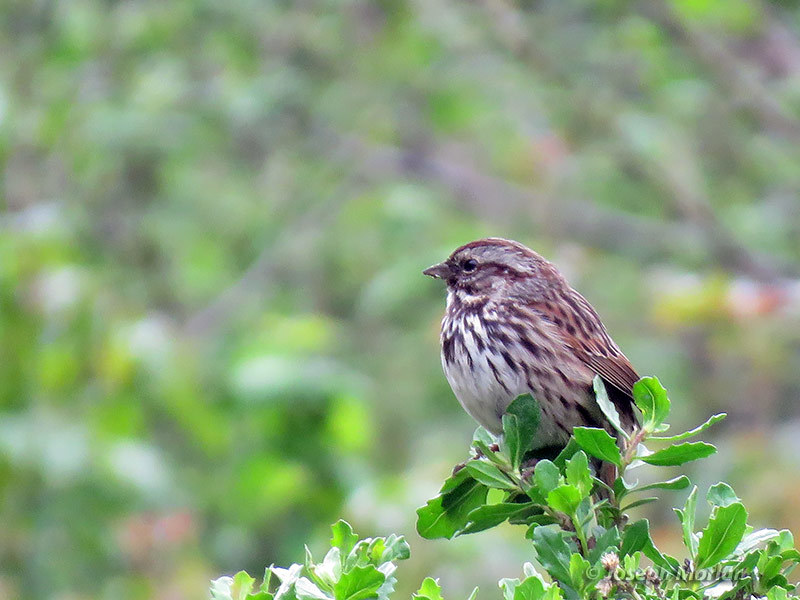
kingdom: Animalia
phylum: Chordata
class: Aves
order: Passeriformes
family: Passerellidae
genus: Melospiza
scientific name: Melospiza melodia
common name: Song sparrow
